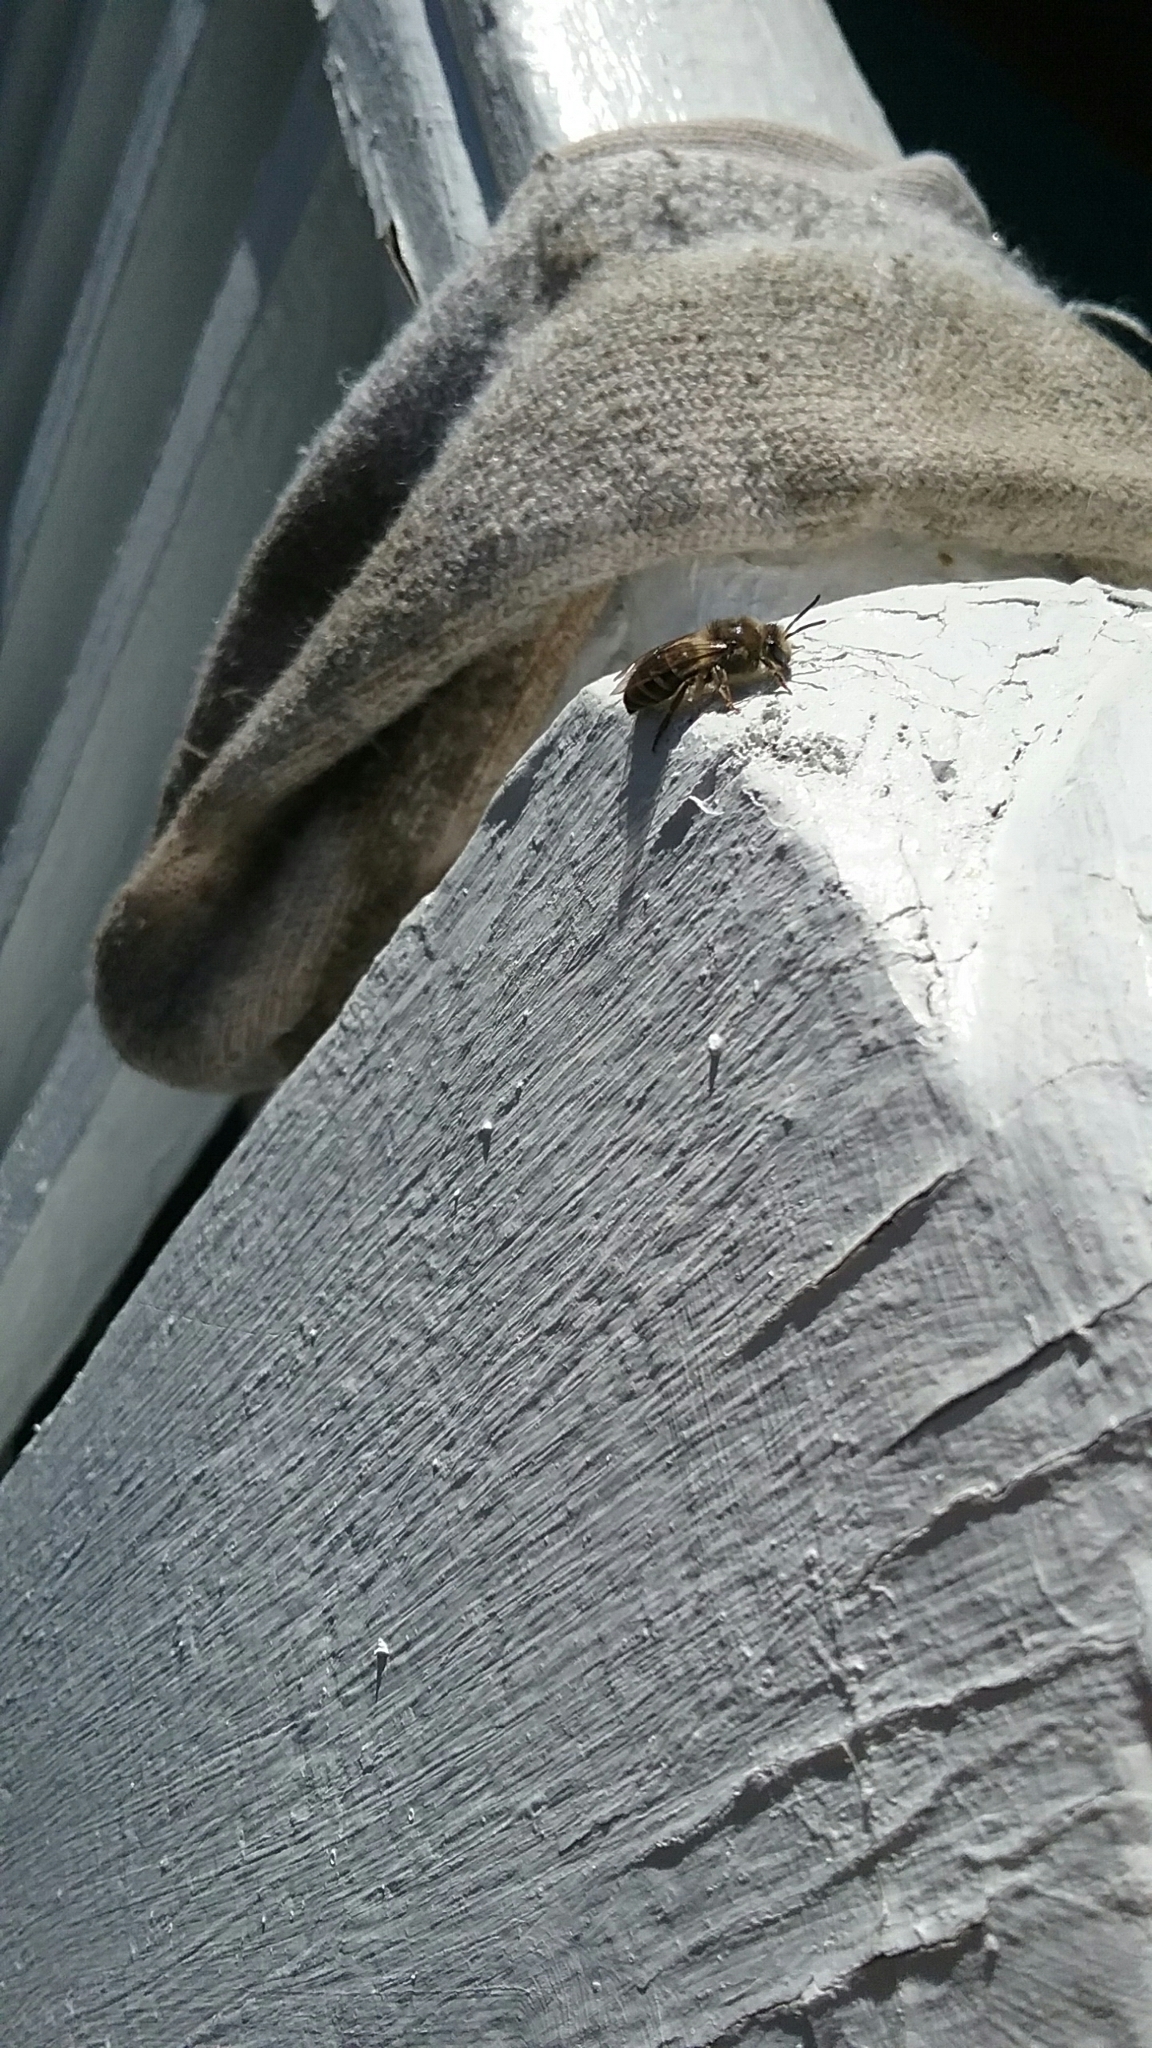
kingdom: Animalia
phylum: Arthropoda
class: Insecta
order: Hymenoptera
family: Colletidae
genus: Colletes
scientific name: Colletes inaequalis
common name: Unequal cellophane bee
